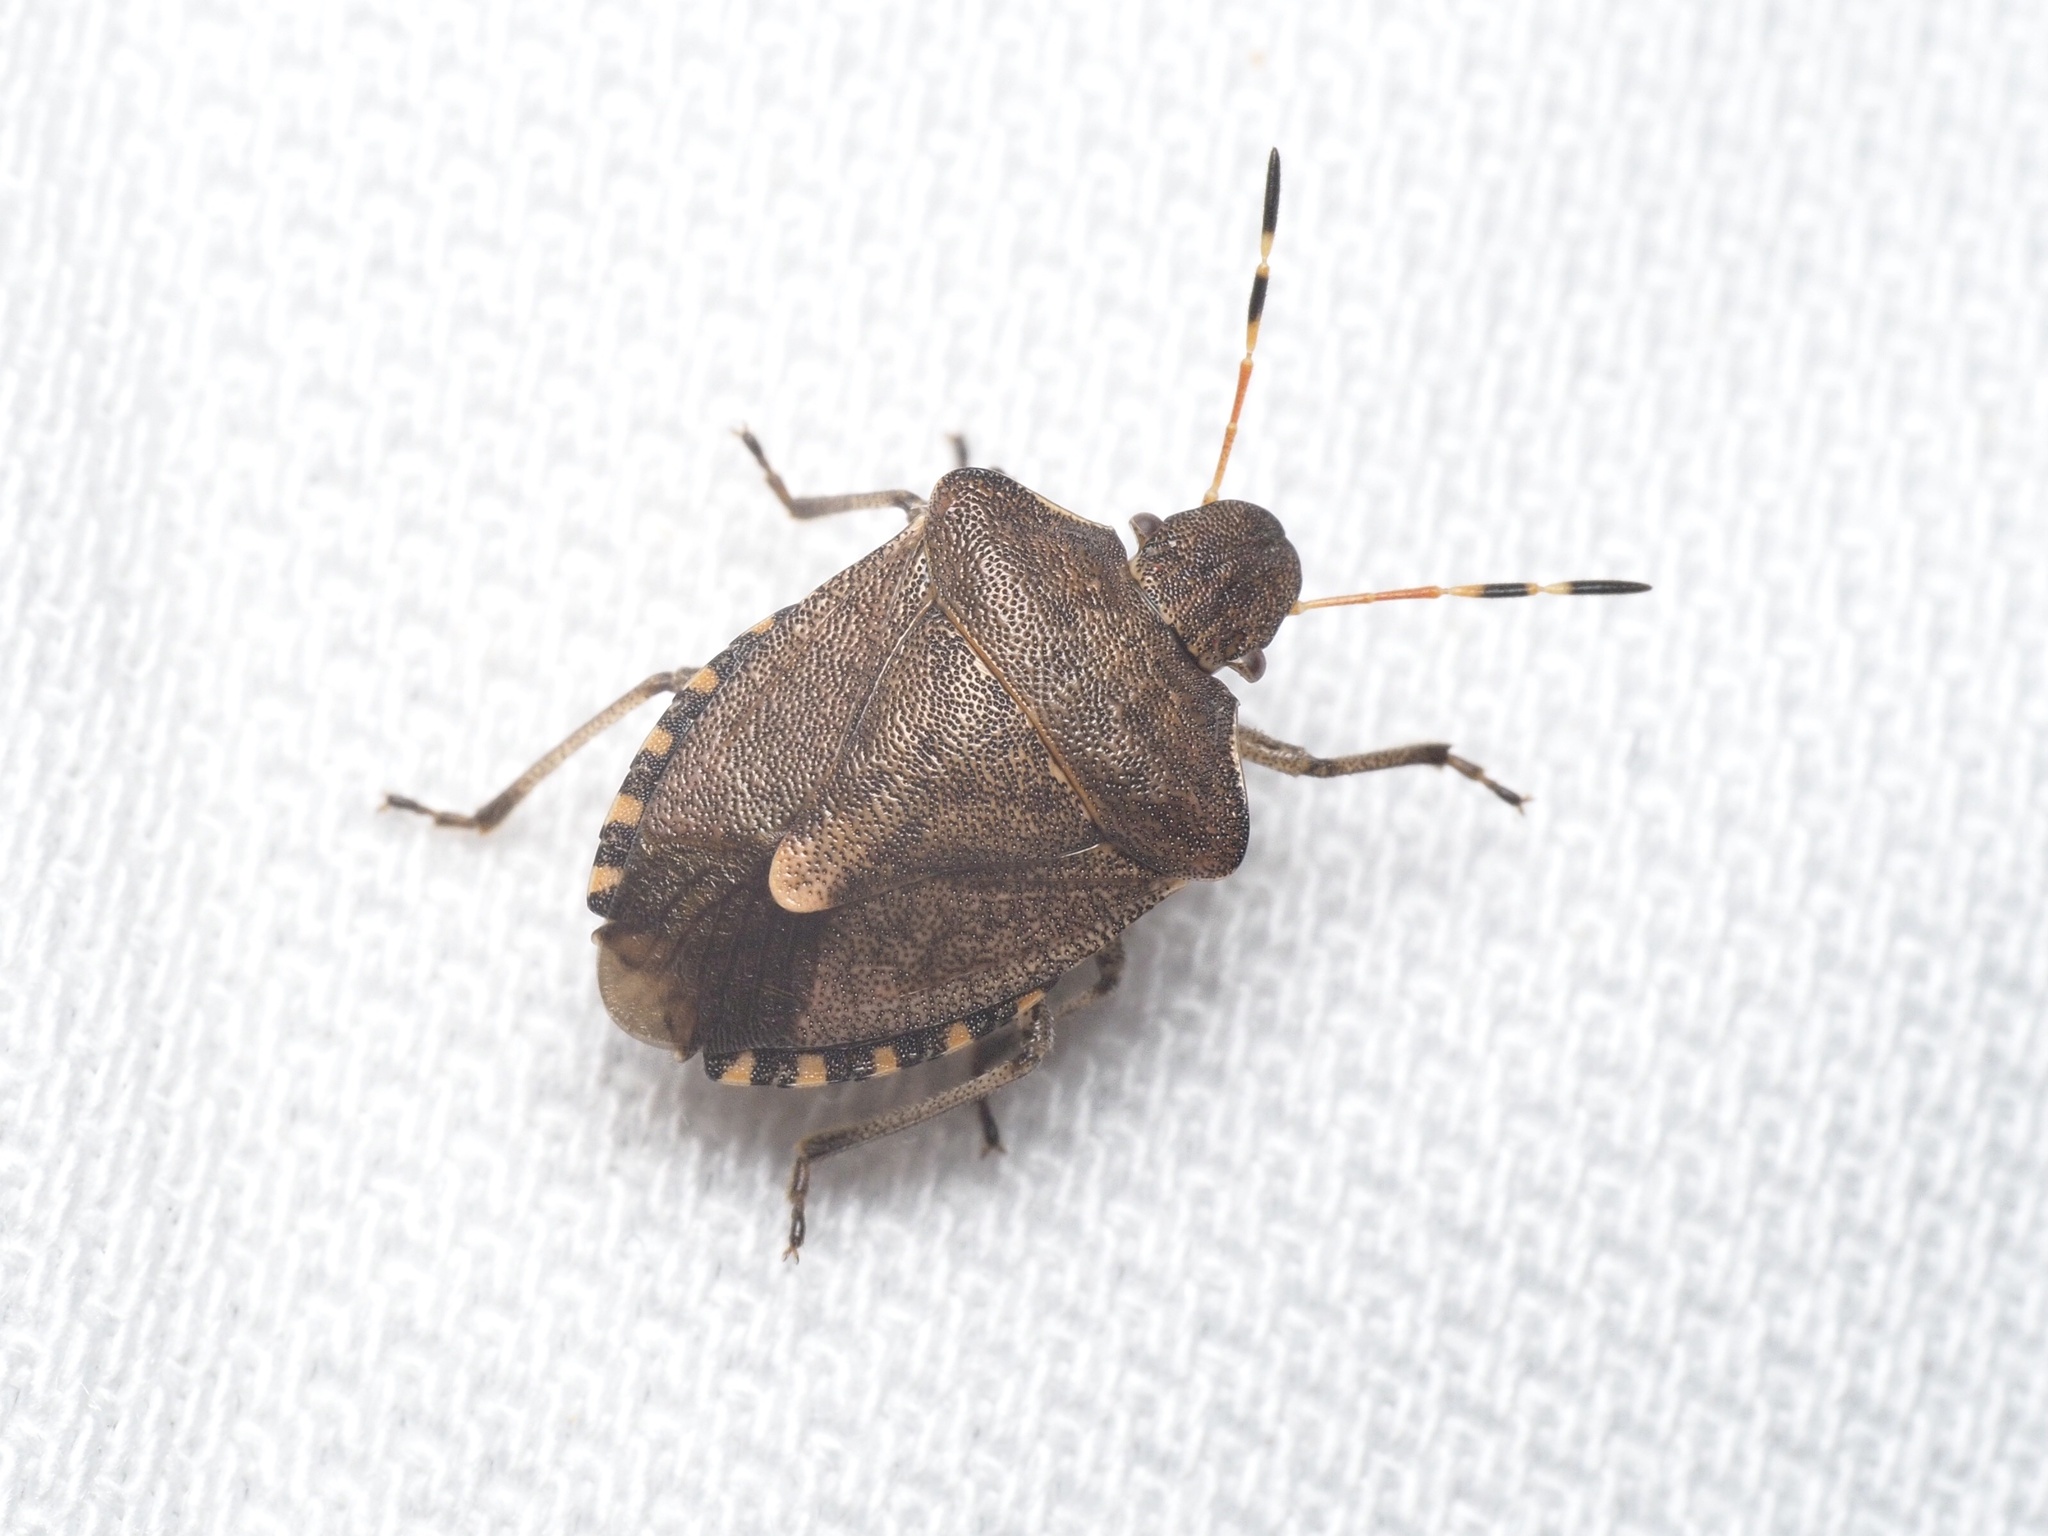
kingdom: Animalia
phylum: Arthropoda
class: Insecta
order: Hemiptera
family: Pentatomidae
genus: Holcostethus
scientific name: Holcostethus strictus
